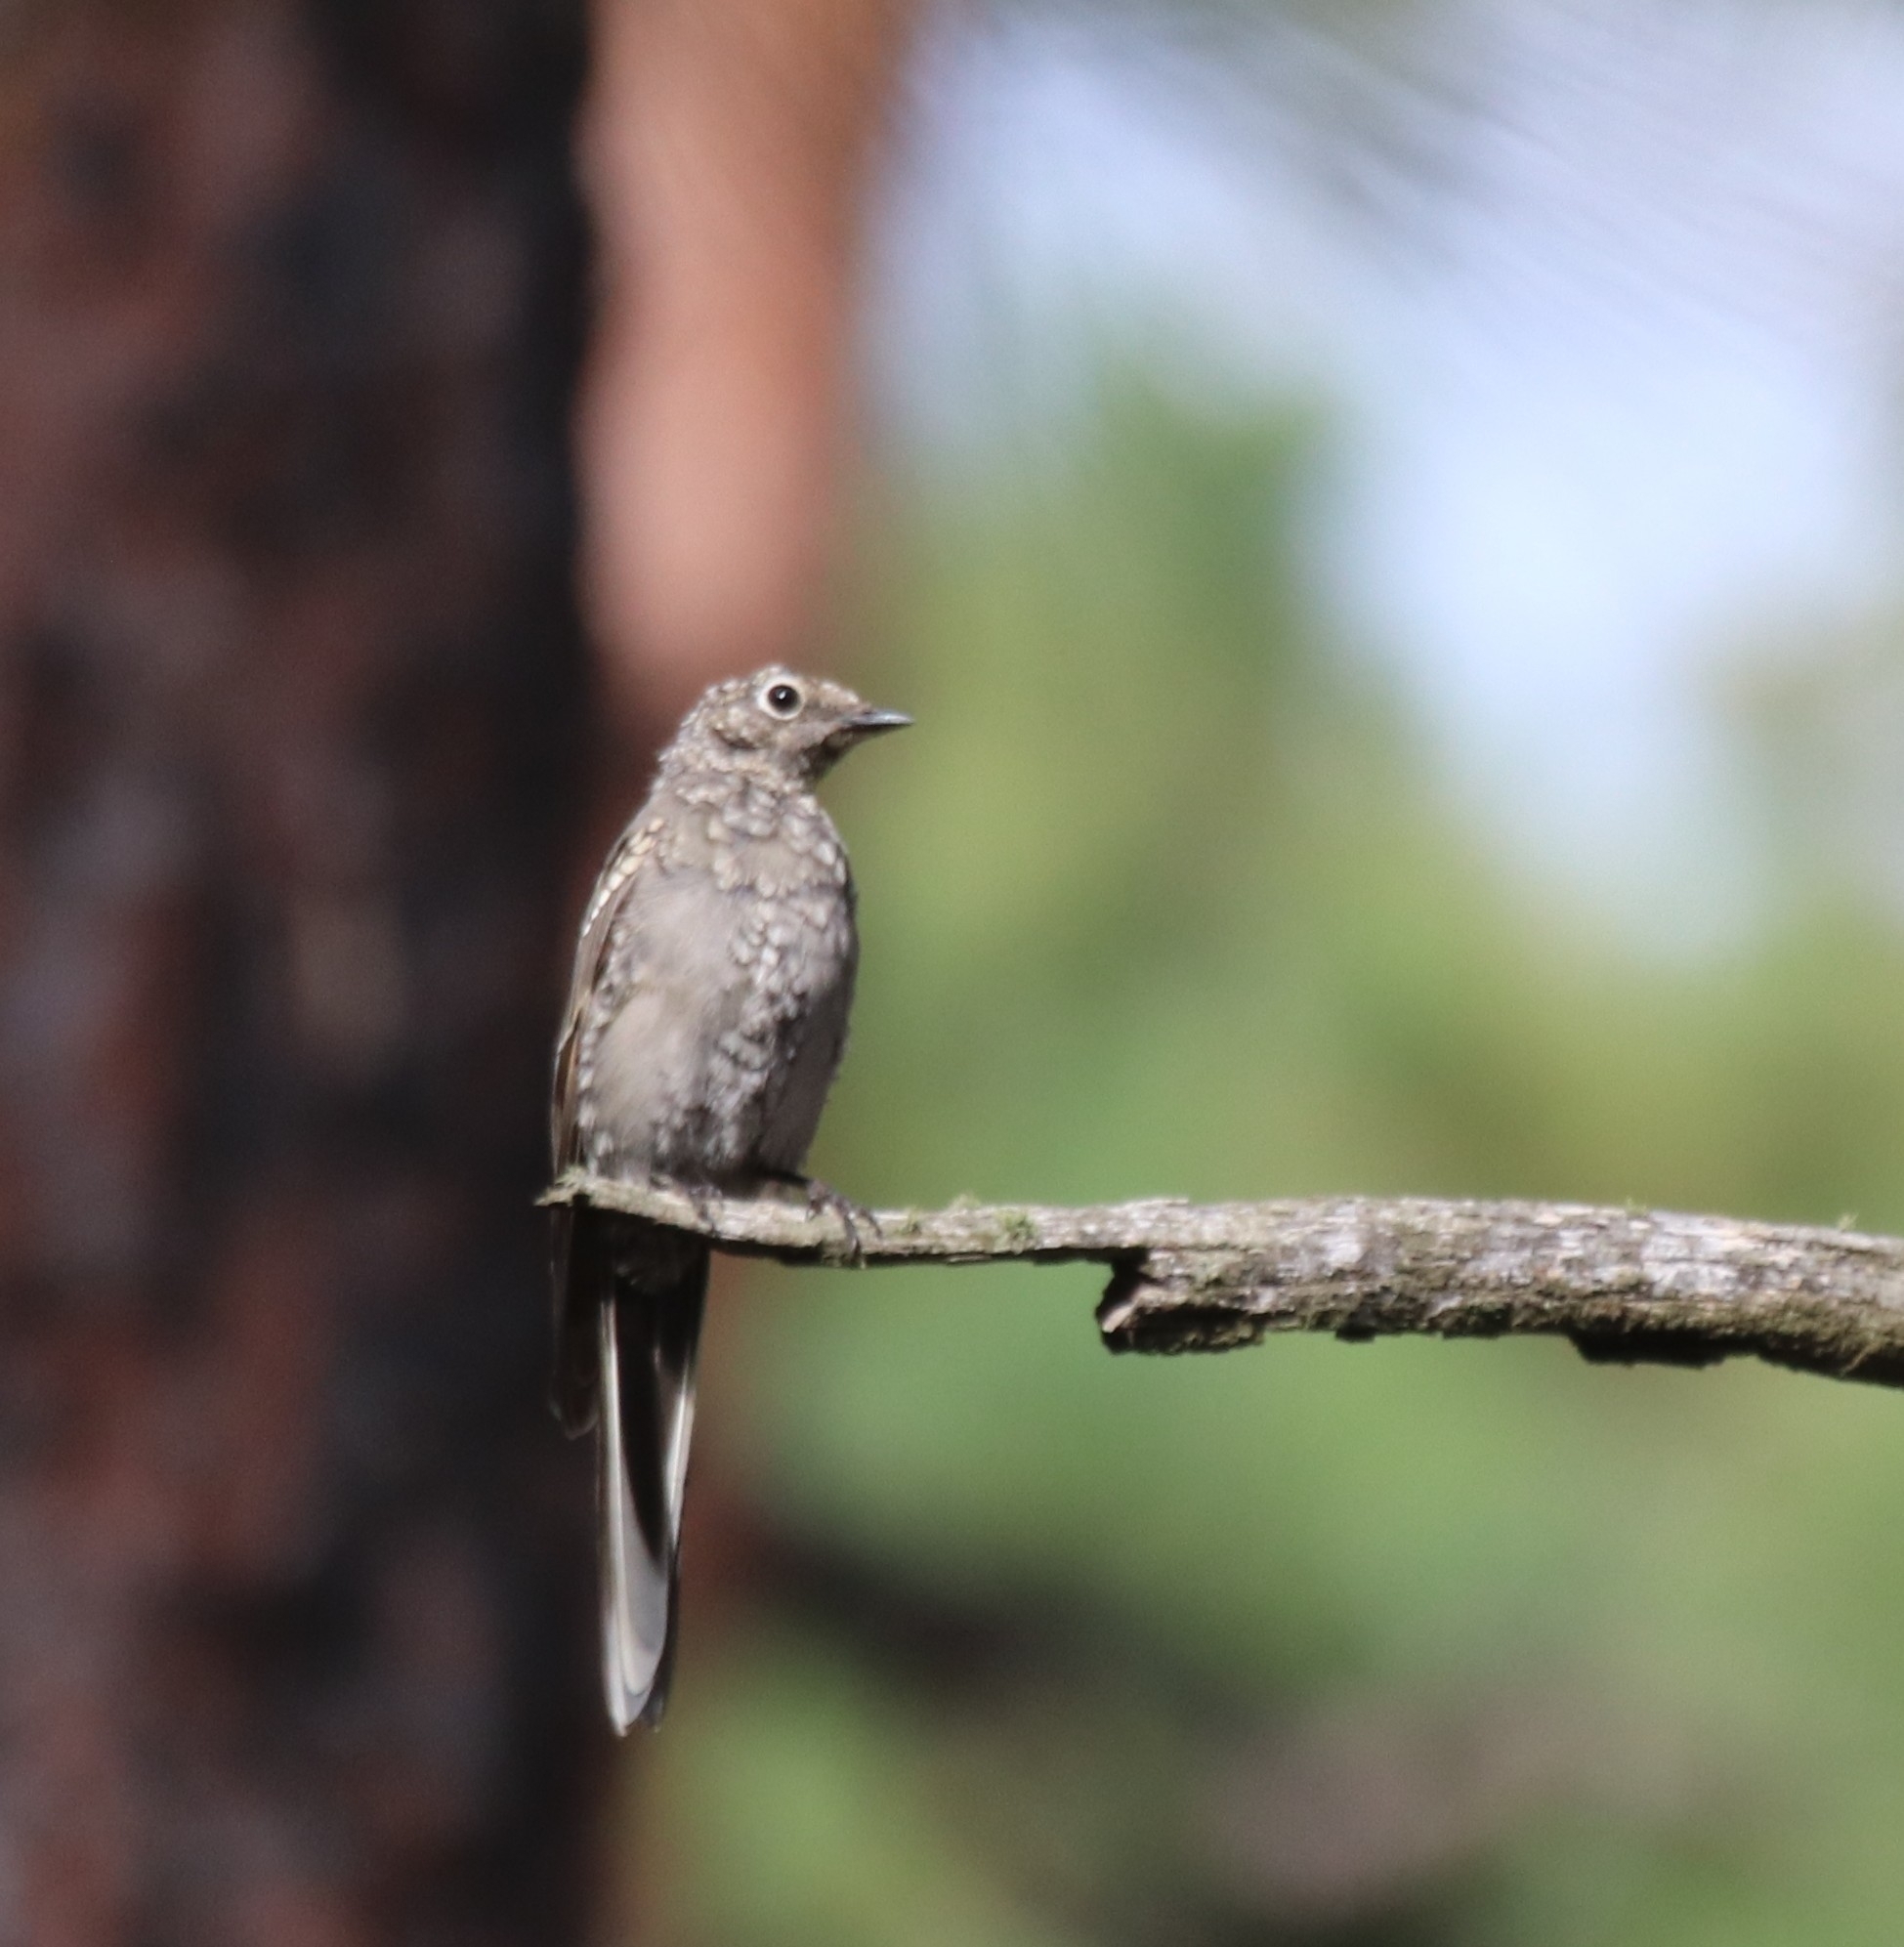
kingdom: Animalia
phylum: Chordata
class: Aves
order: Passeriformes
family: Turdidae
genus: Myadestes
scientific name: Myadestes townsendi
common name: Townsend's solitaire
